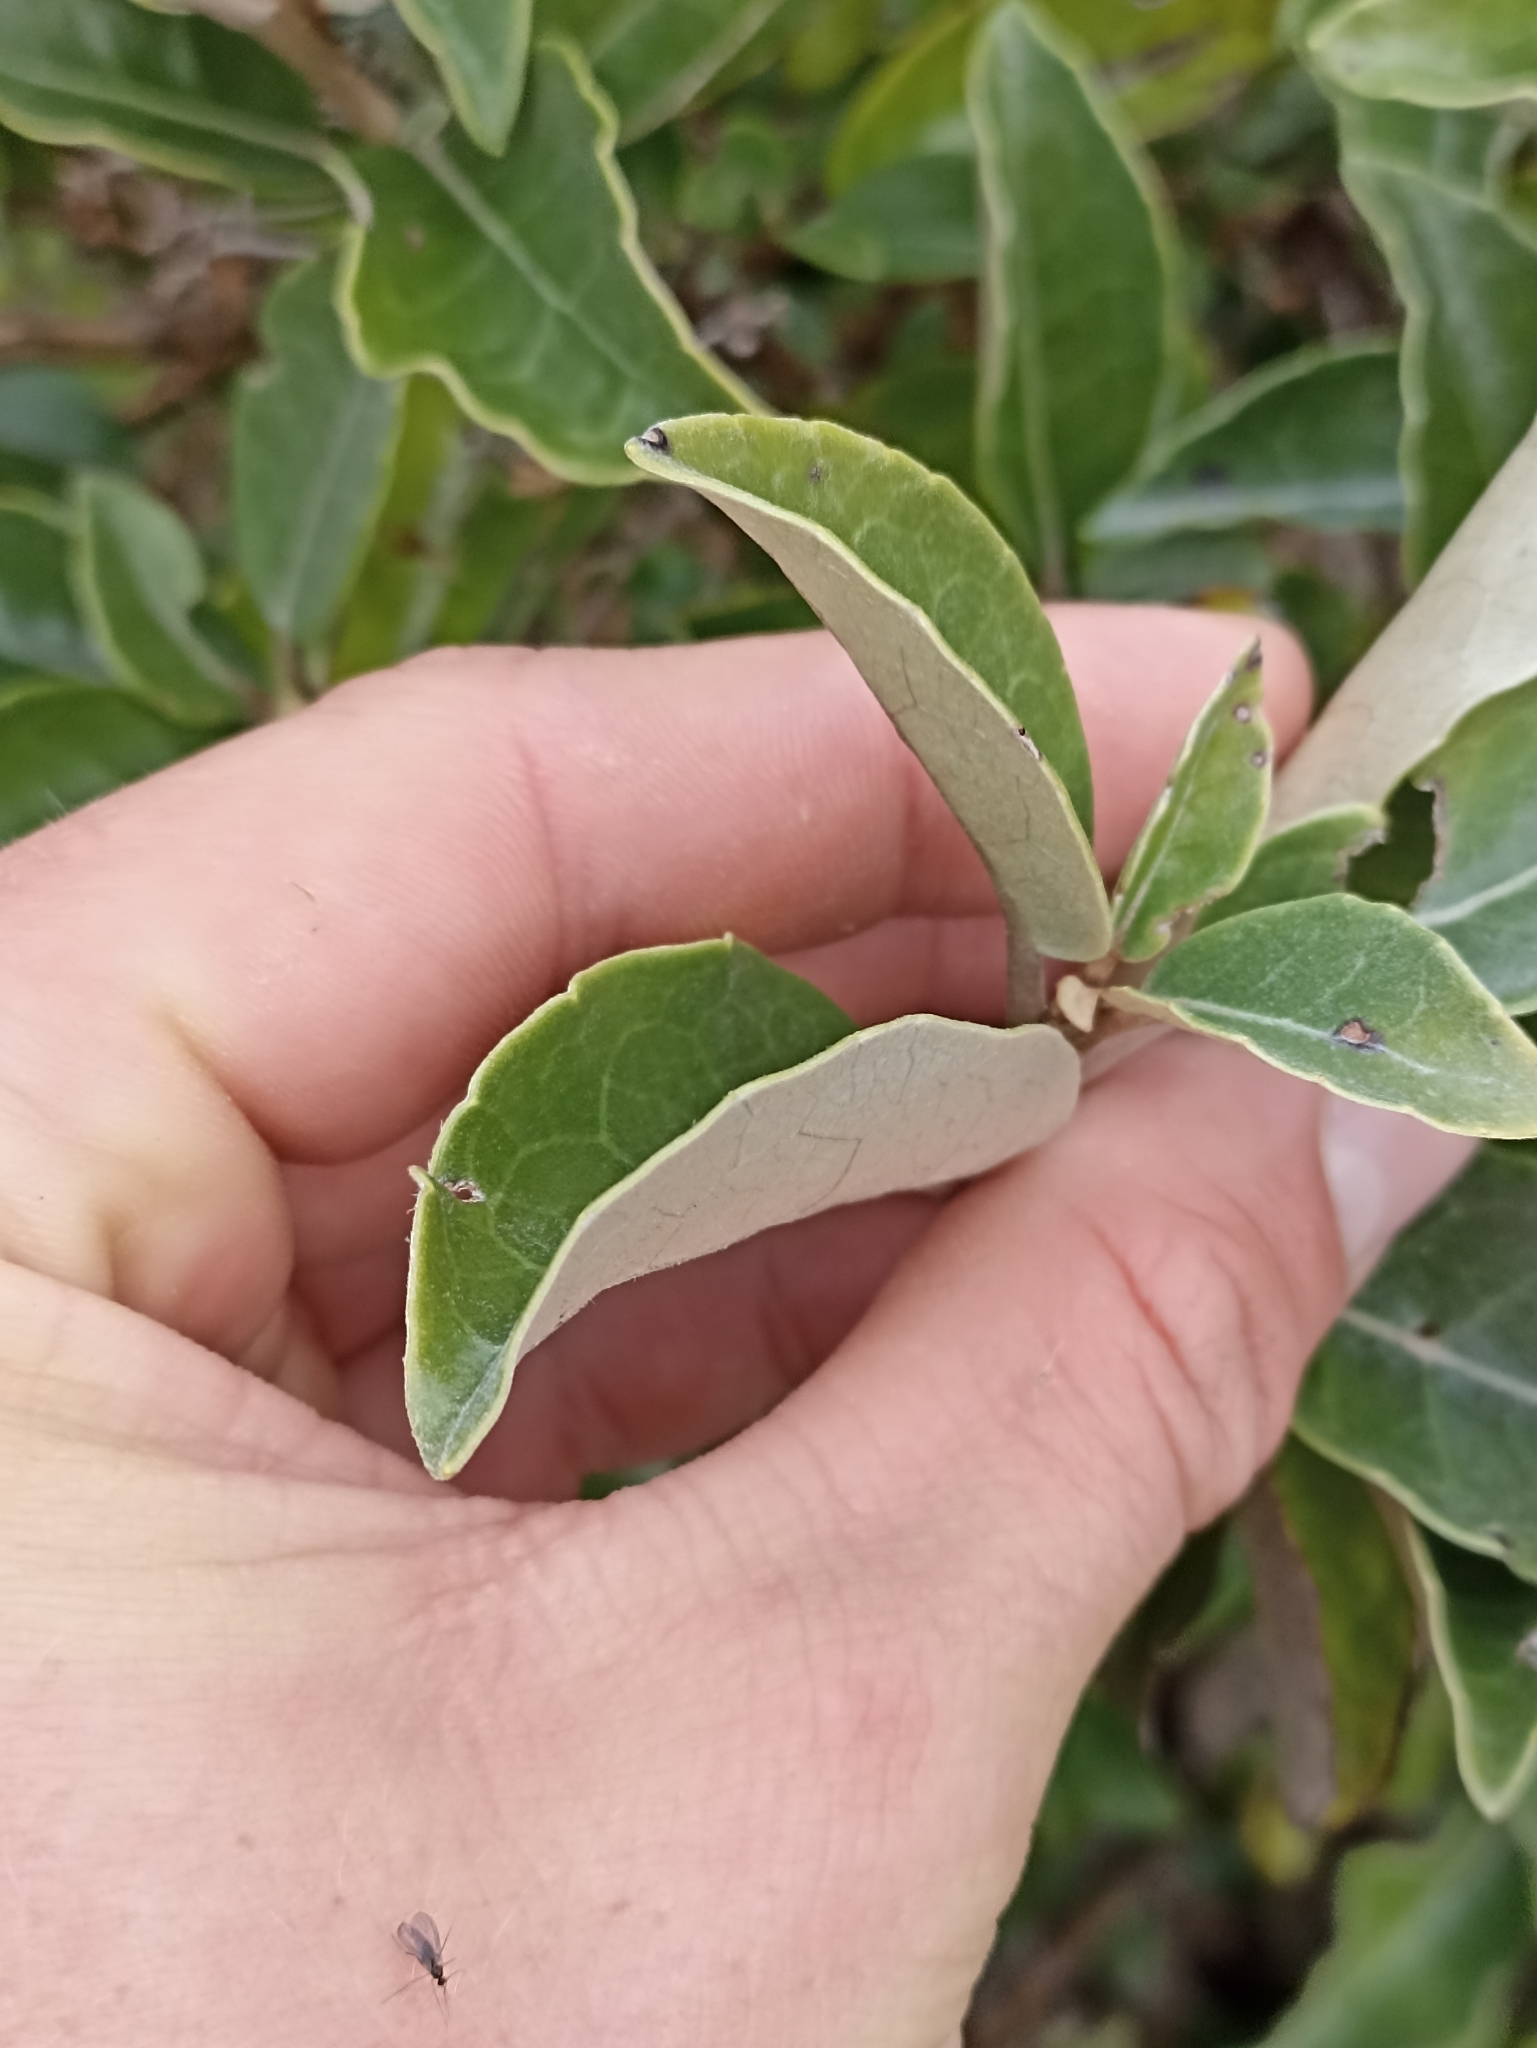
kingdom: Plantae
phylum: Tracheophyta
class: Magnoliopsida
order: Asterales
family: Asteraceae
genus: Olearia
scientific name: Olearia arborescens
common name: Glossy tree daisy
